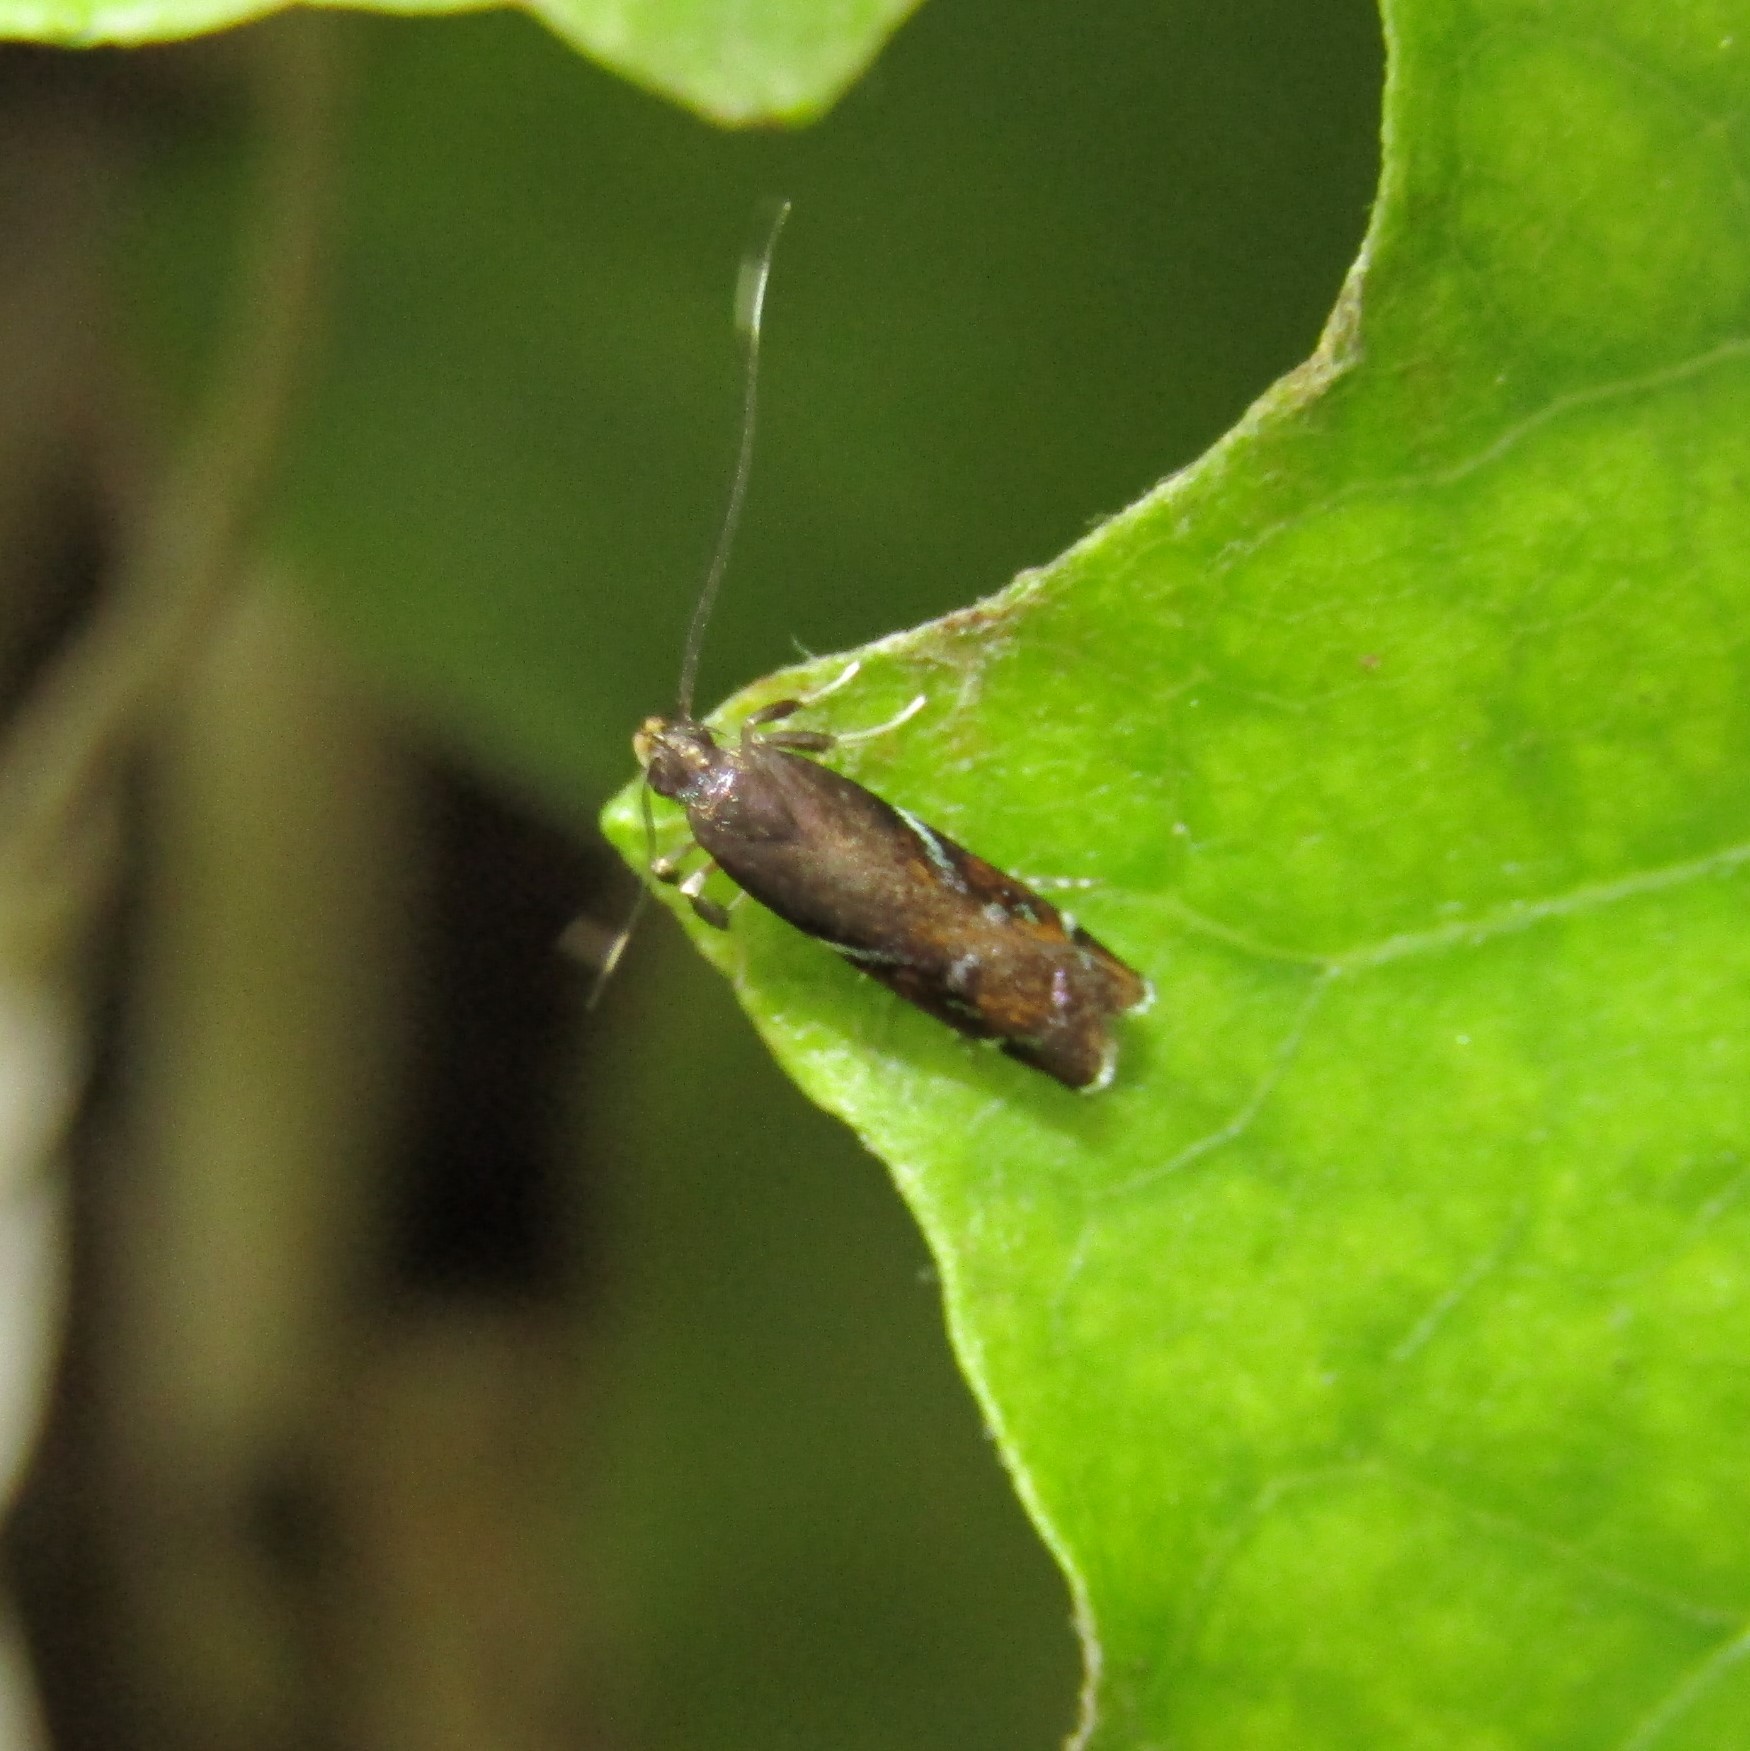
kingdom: Animalia
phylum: Arthropoda
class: Insecta
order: Lepidoptera
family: Depressariidae
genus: Compsistis
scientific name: Compsistis bifaciella
